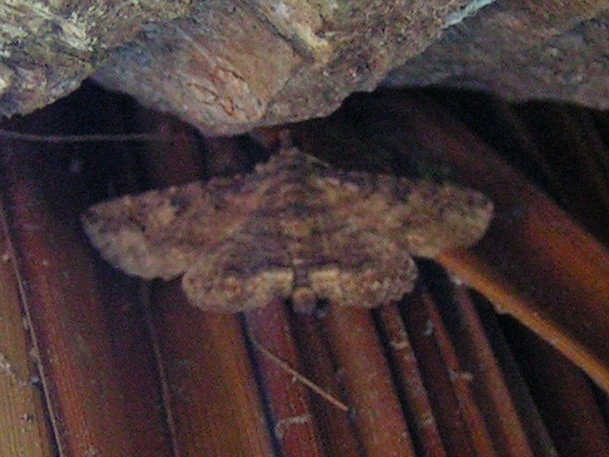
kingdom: Animalia
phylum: Arthropoda
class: Insecta
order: Lepidoptera
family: Erebidae
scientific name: Erebidae
